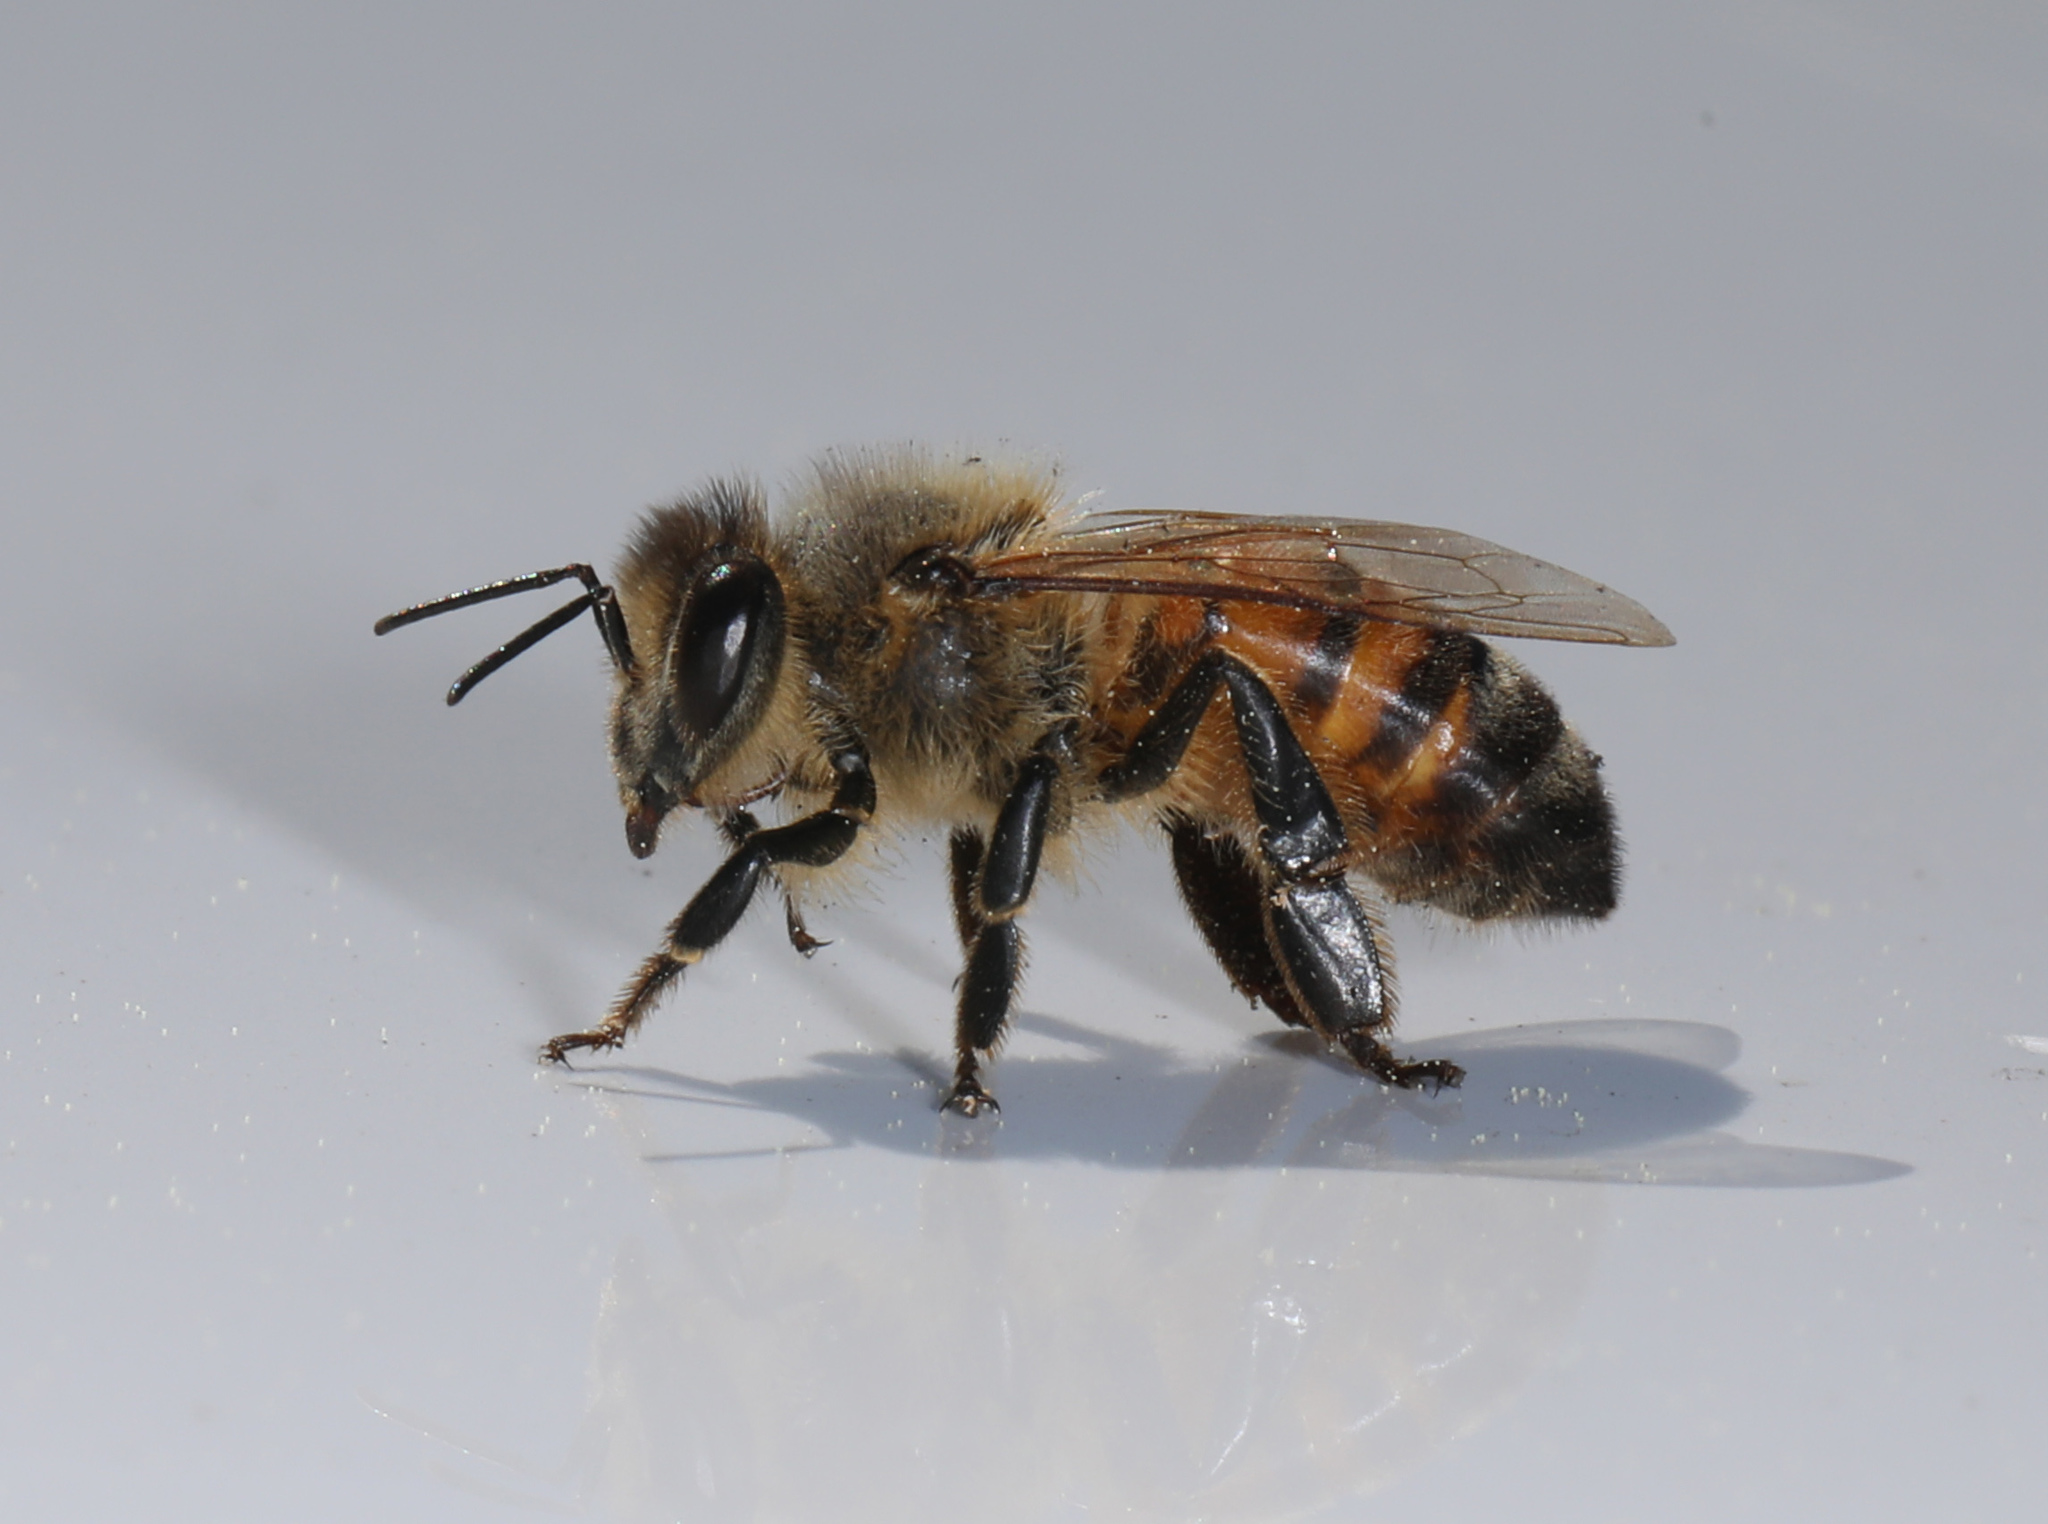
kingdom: Animalia
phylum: Arthropoda
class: Insecta
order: Hymenoptera
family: Apidae
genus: Apis
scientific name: Apis mellifera
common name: Honey bee
